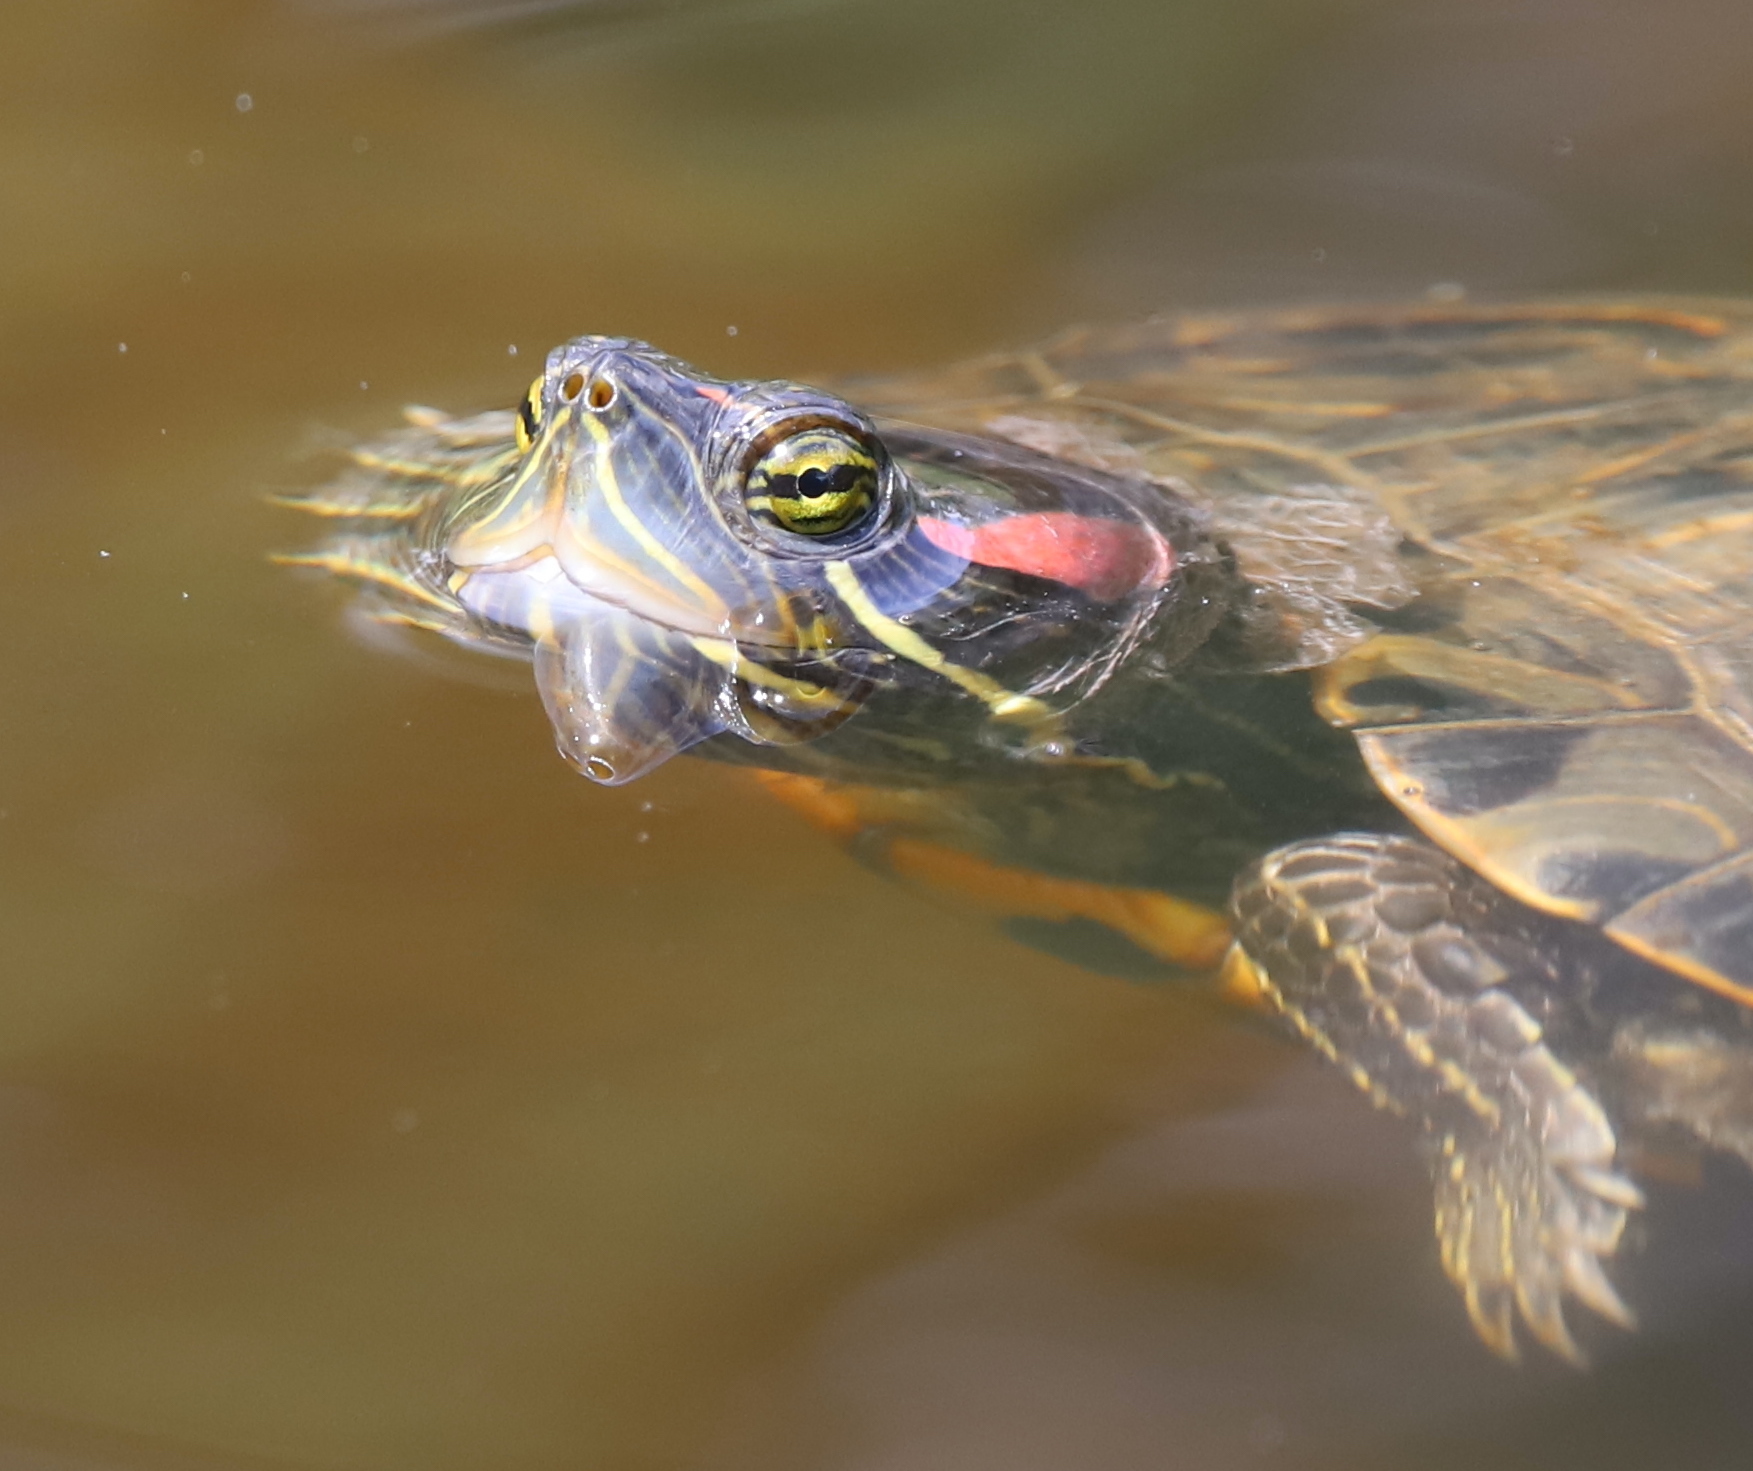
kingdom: Animalia
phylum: Chordata
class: Testudines
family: Emydidae
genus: Trachemys
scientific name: Trachemys scripta
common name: Slider
